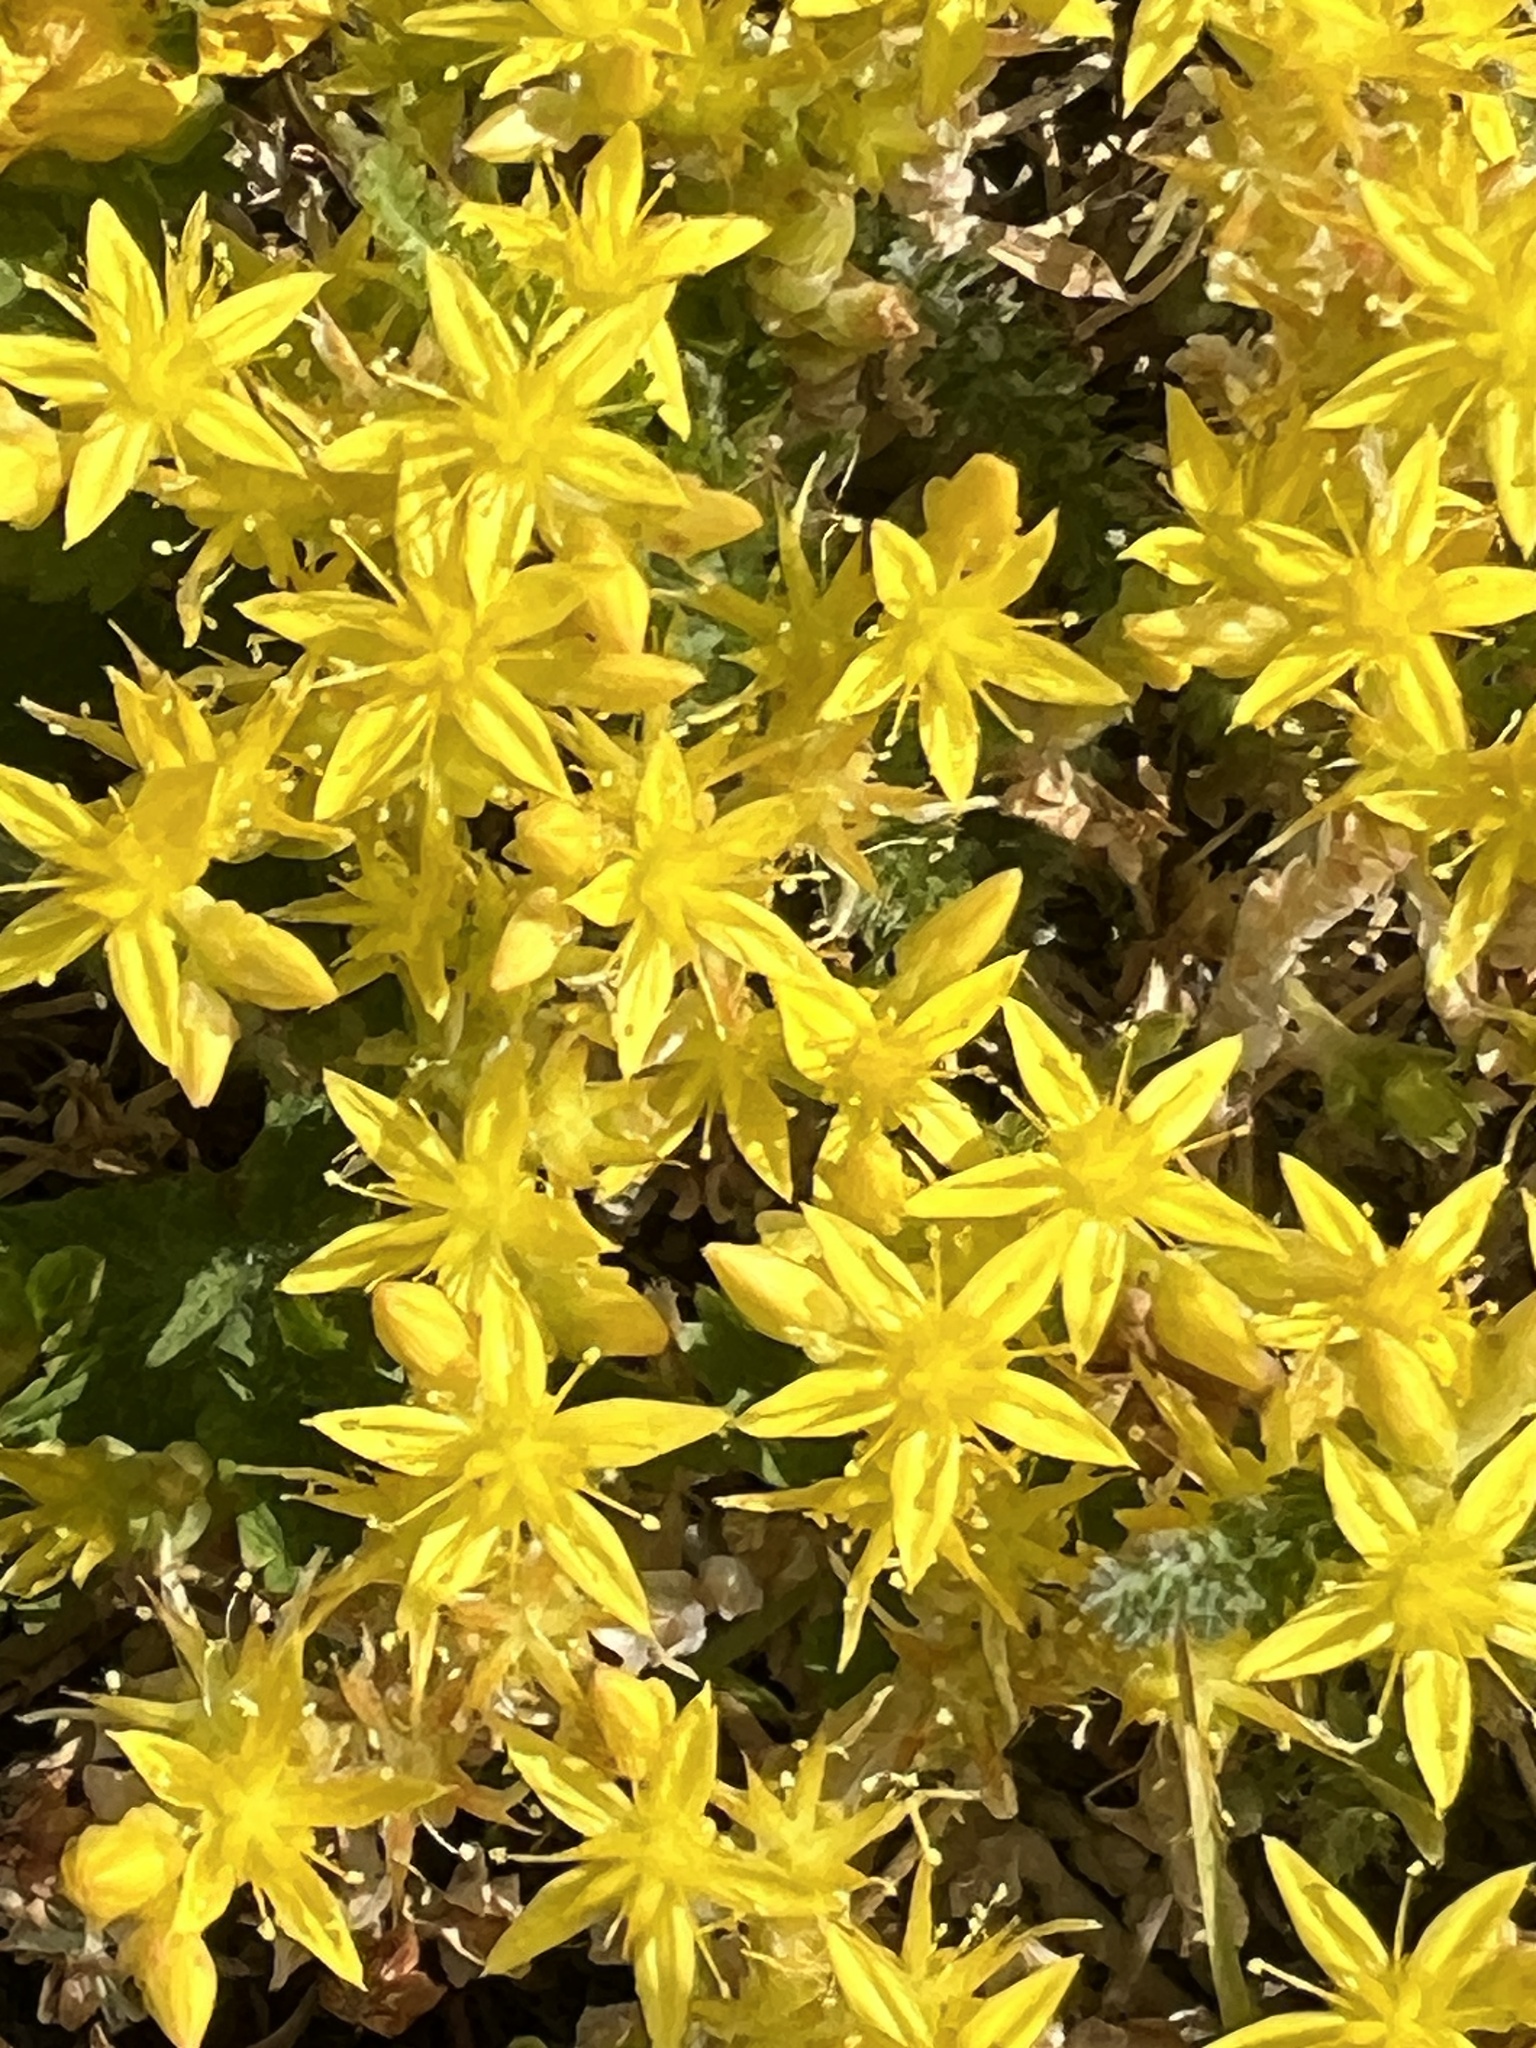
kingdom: Plantae
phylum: Tracheophyta
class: Magnoliopsida
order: Saxifragales
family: Crassulaceae
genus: Sedum
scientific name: Sedum acre
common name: Biting stonecrop
